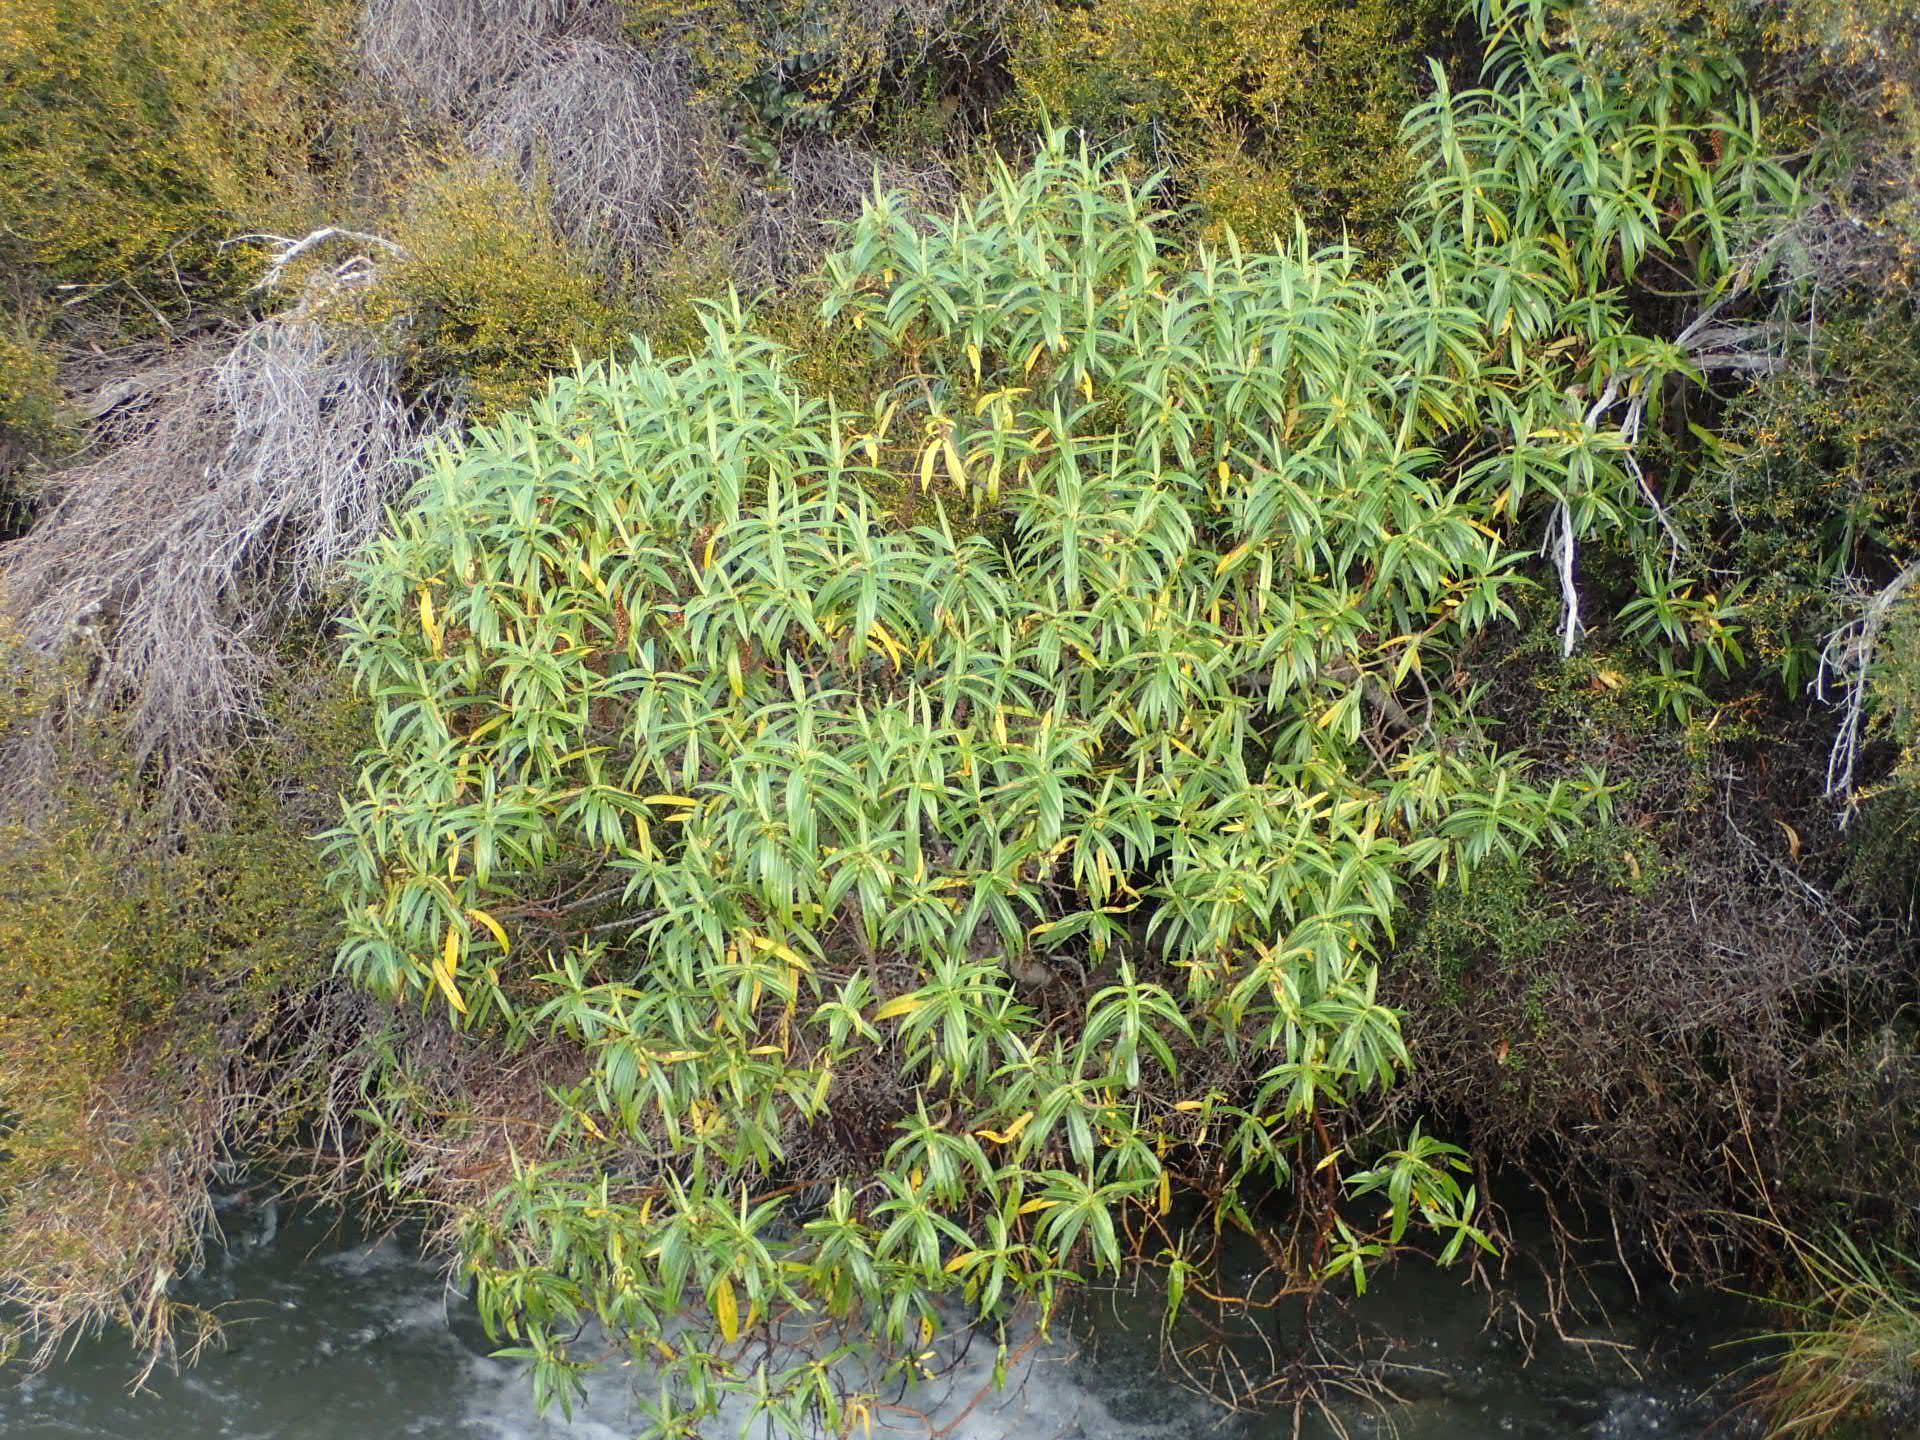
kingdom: Plantae
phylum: Tracheophyta
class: Magnoliopsida
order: Lamiales
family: Plantaginaceae
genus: Veronica
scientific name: Veronica salicifolia
